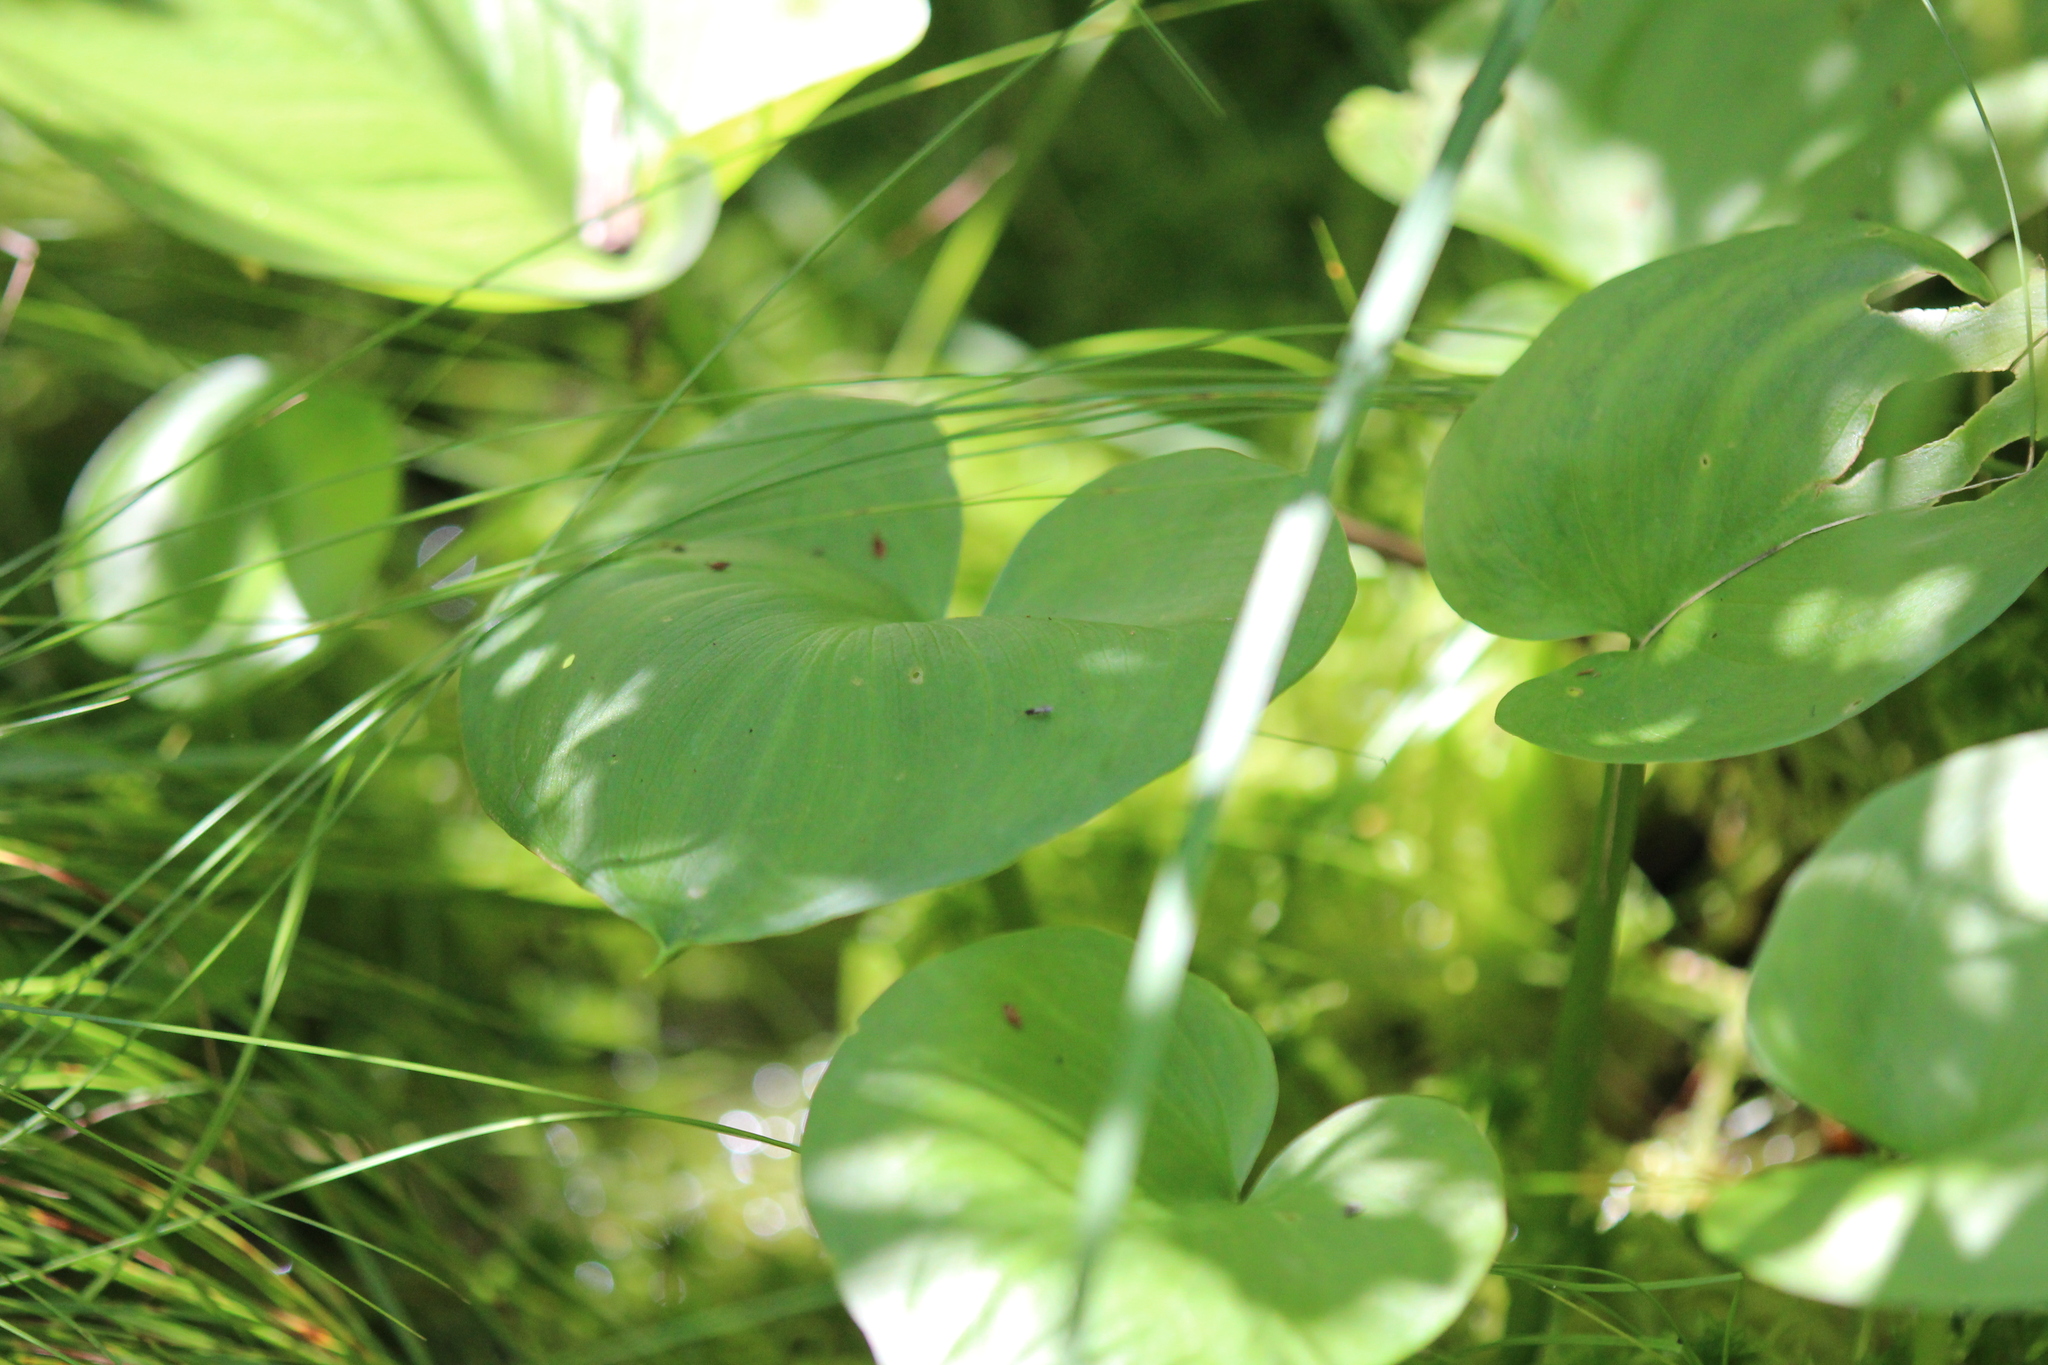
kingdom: Plantae
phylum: Tracheophyta
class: Liliopsida
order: Alismatales
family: Araceae
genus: Calla
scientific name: Calla palustris
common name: Bog arum
